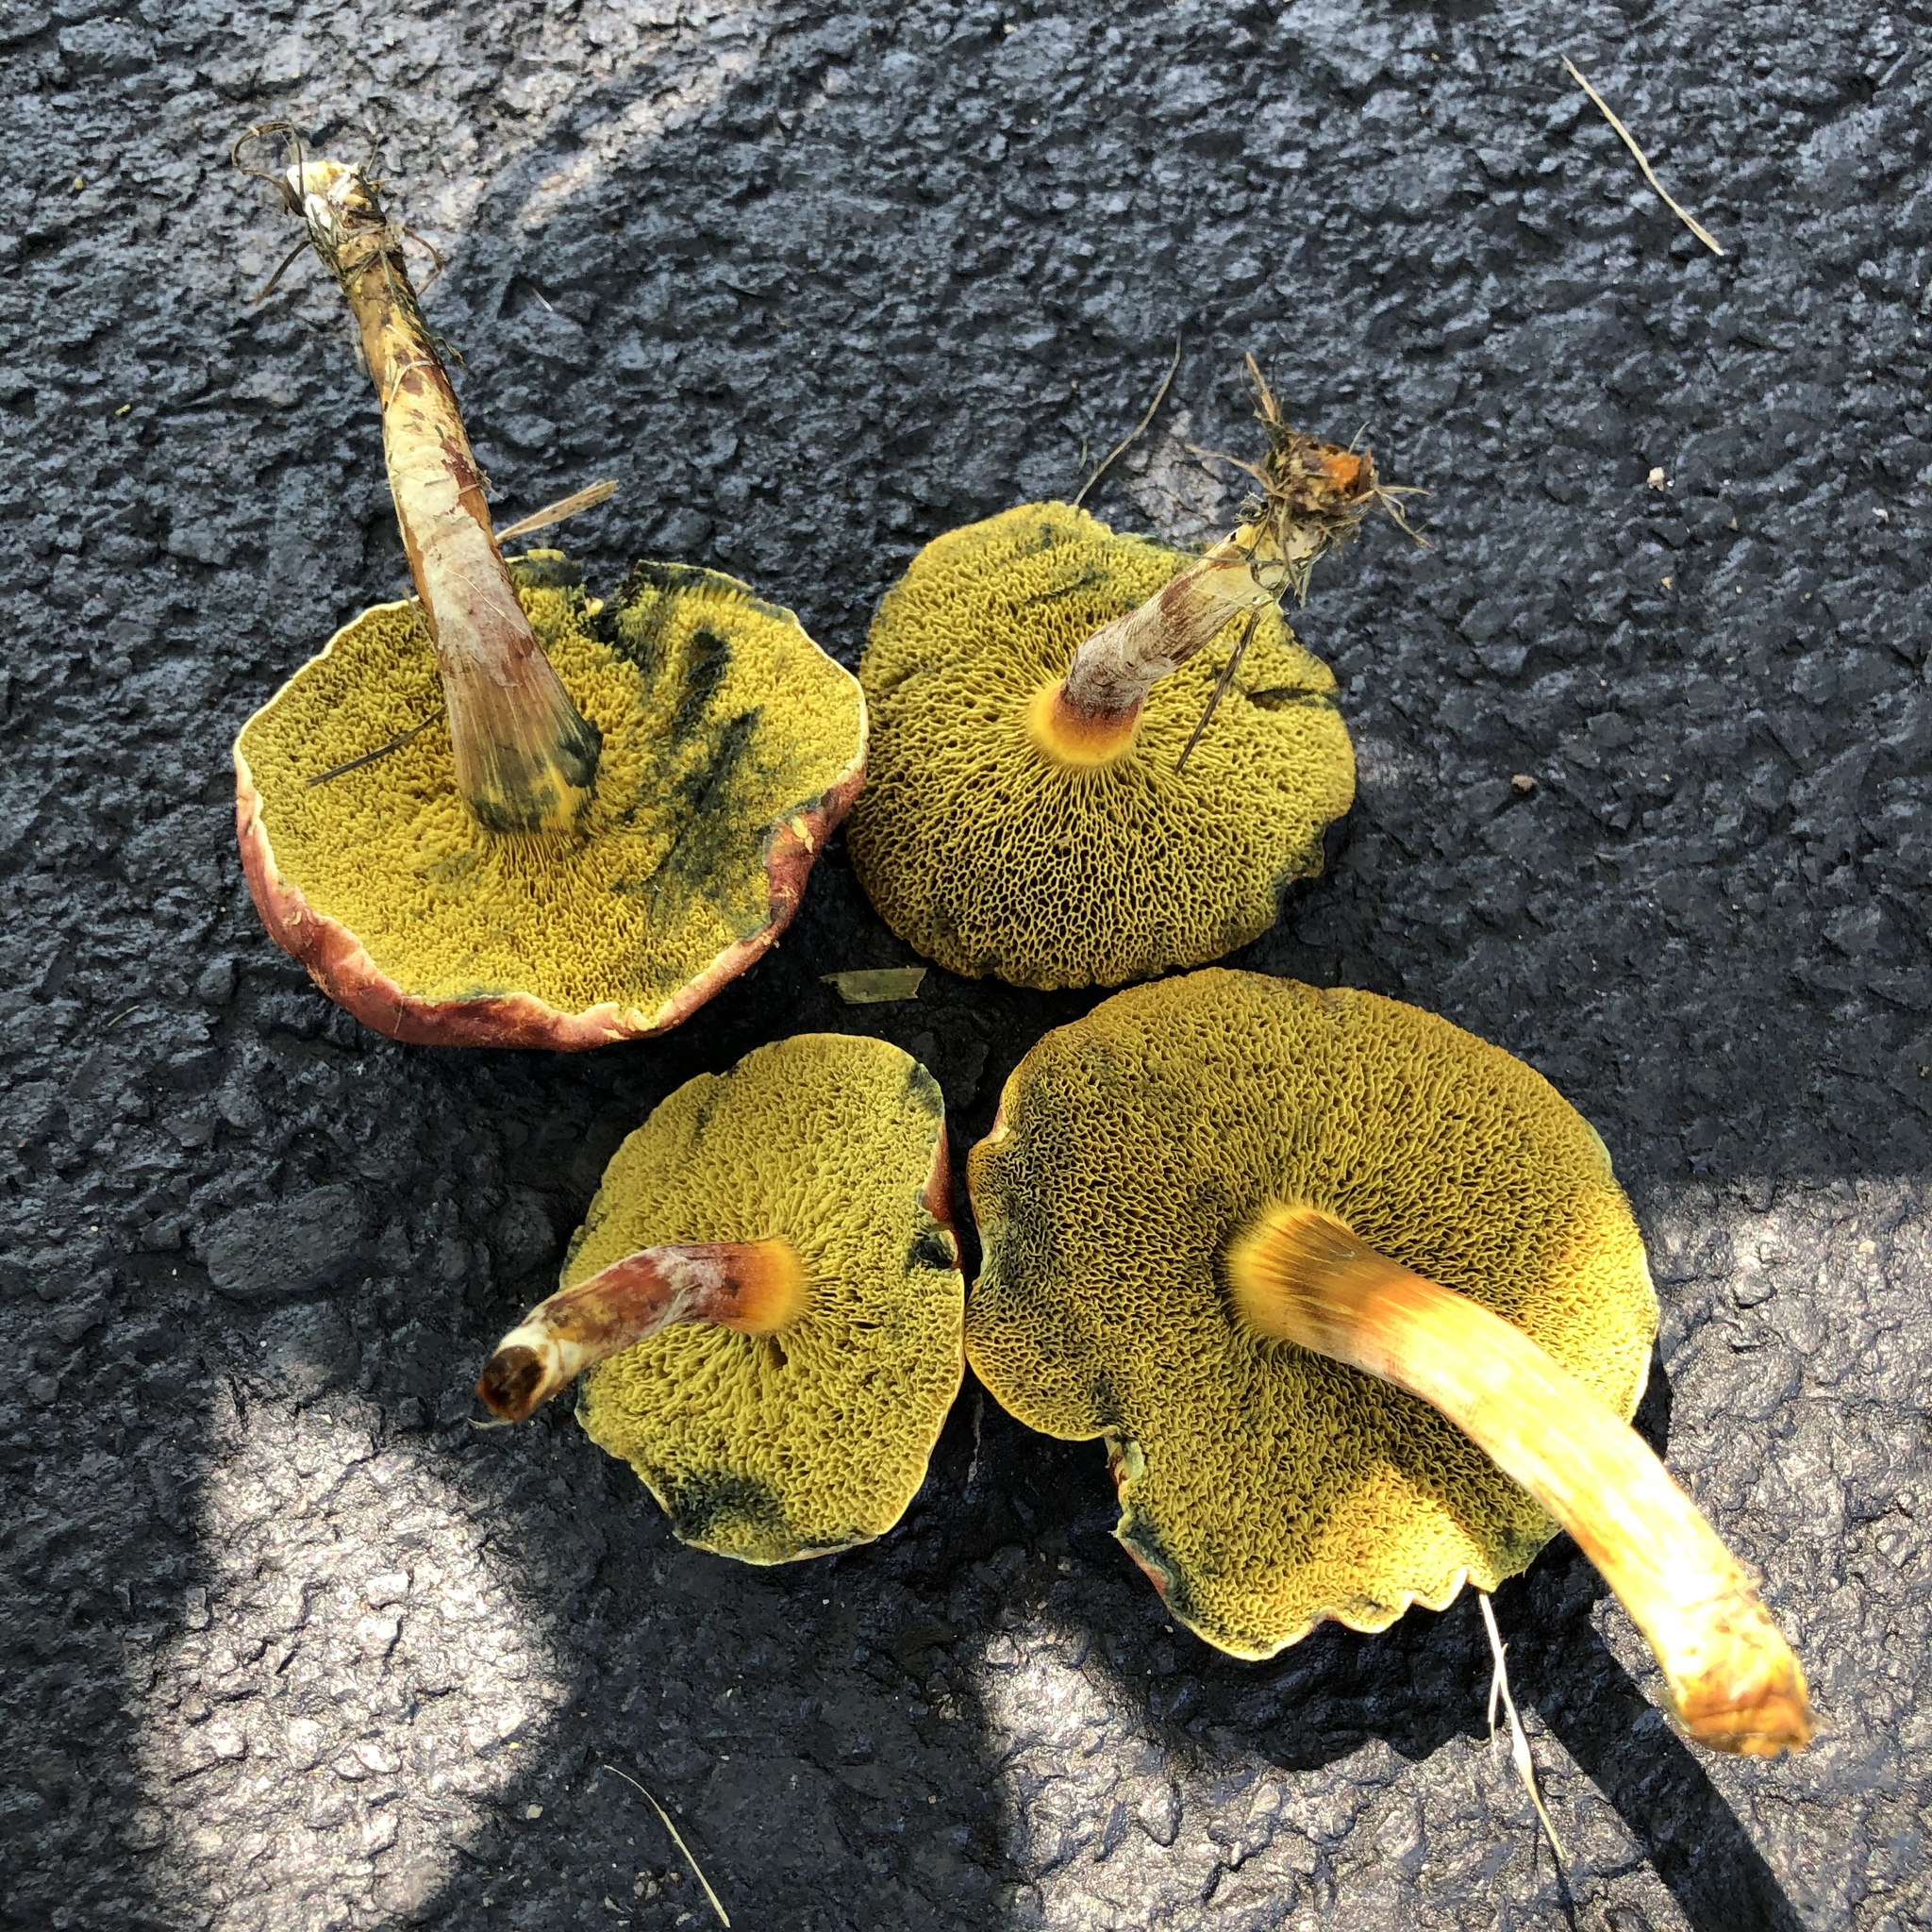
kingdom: Fungi
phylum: Basidiomycota
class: Agaricomycetes
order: Boletales
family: Boletaceae
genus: Hortiboletus
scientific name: Hortiboletus rubellus
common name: Ruby bolete
